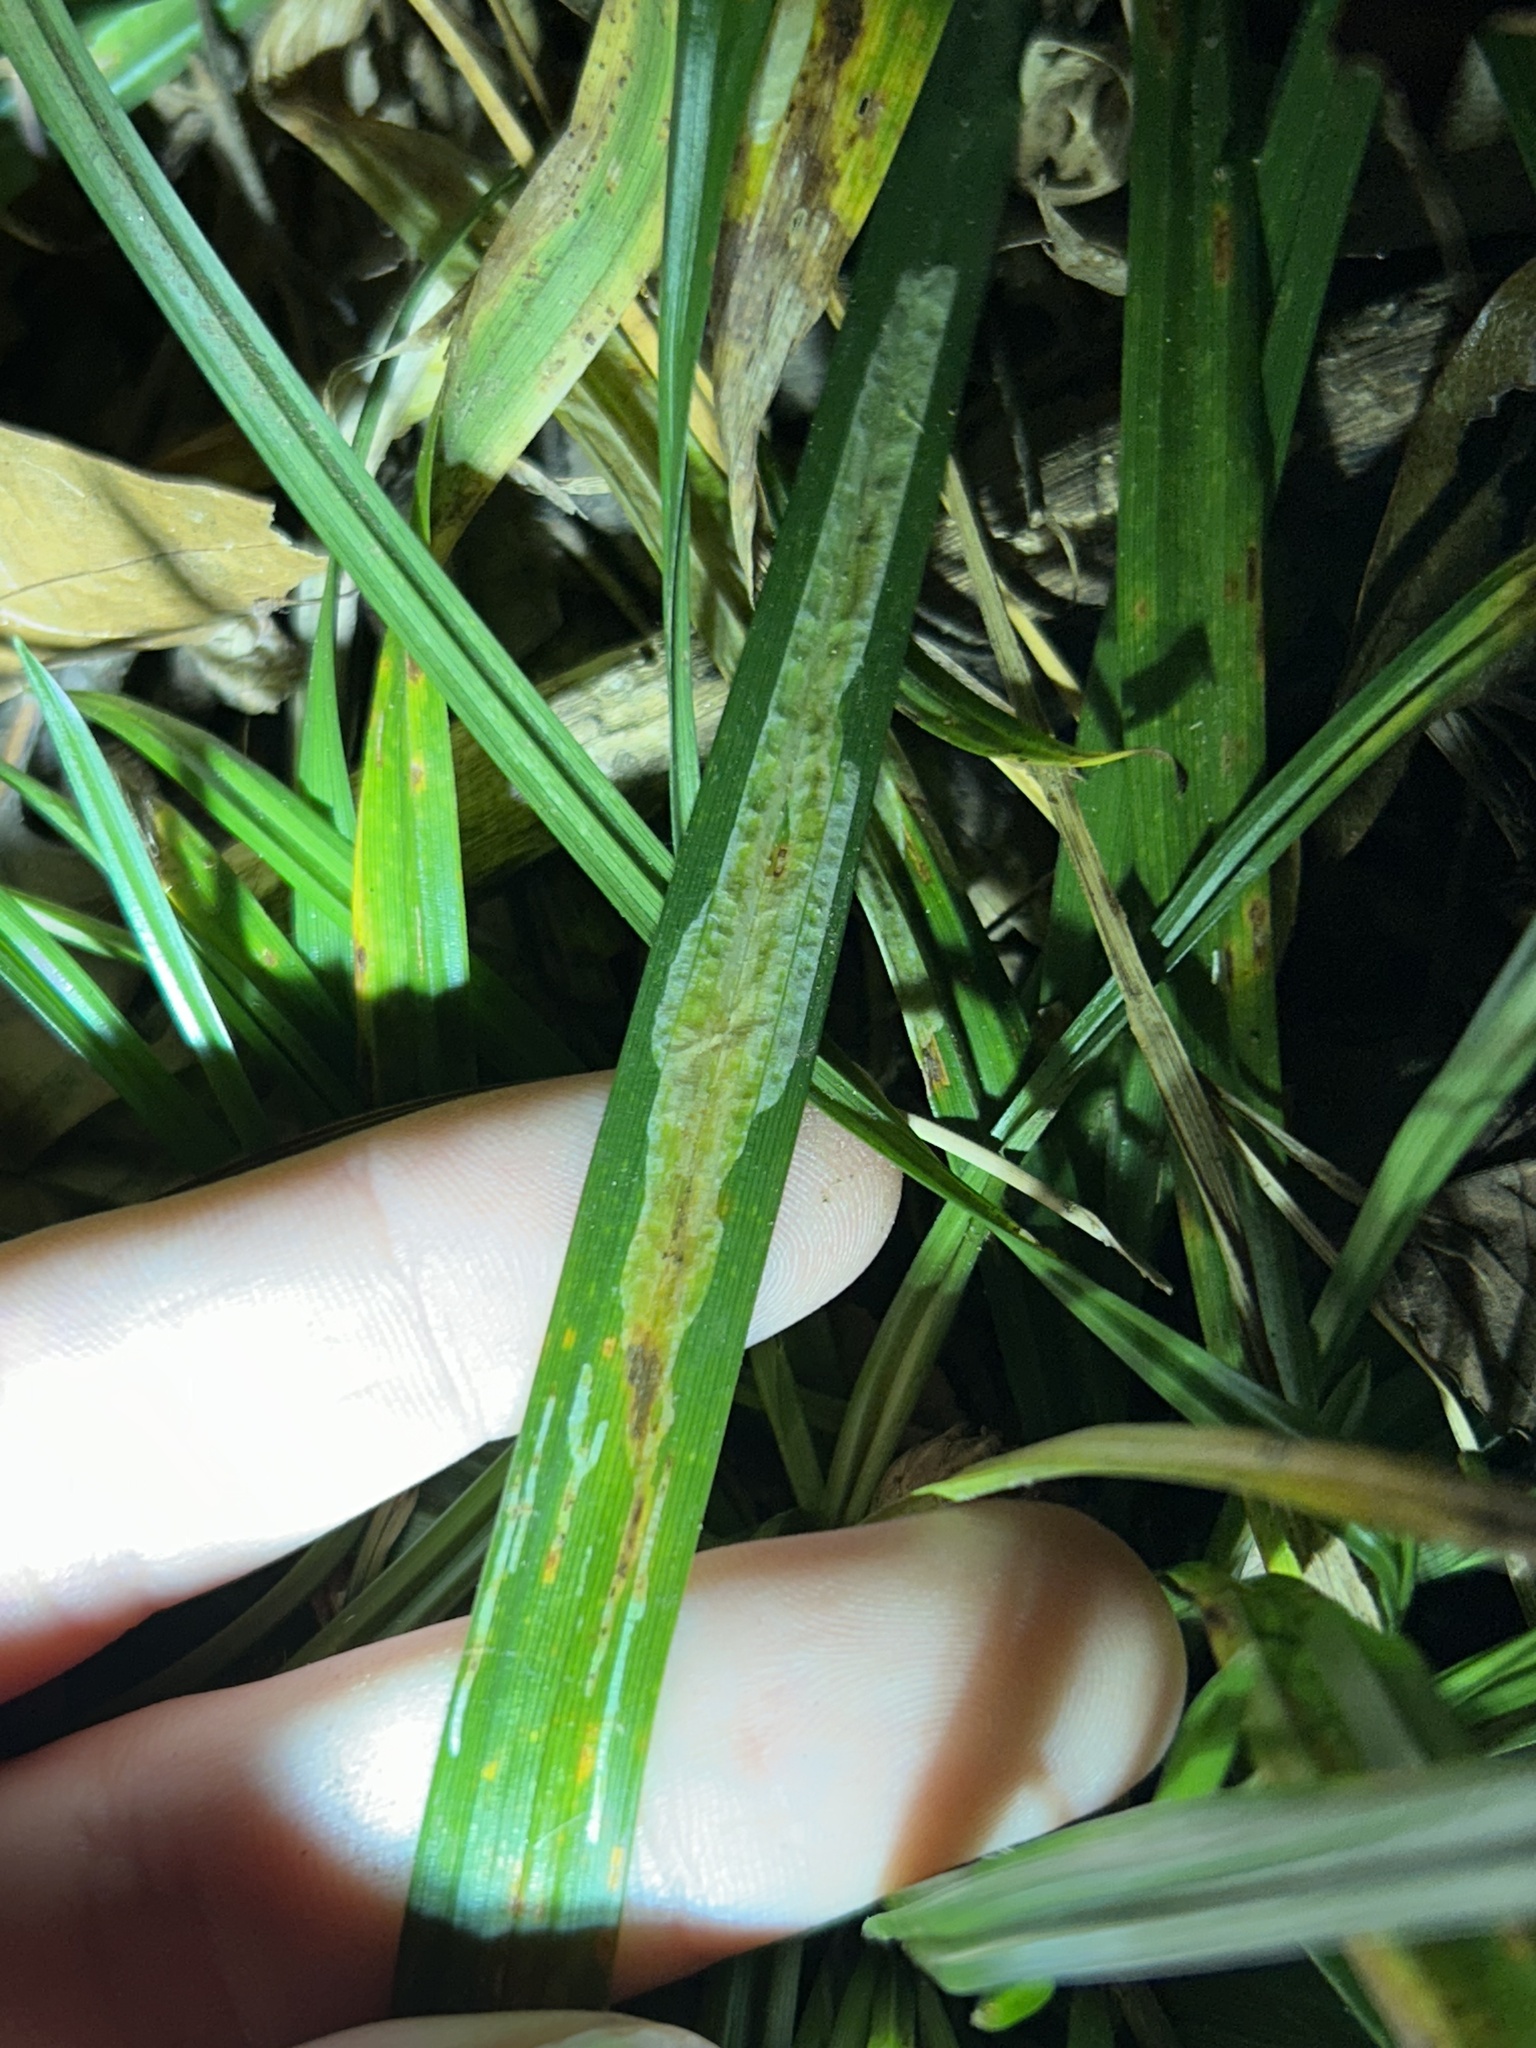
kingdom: Plantae
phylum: Tracheophyta
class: Liliopsida
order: Poales
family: Cyperaceae
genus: Carex
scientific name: Carex
